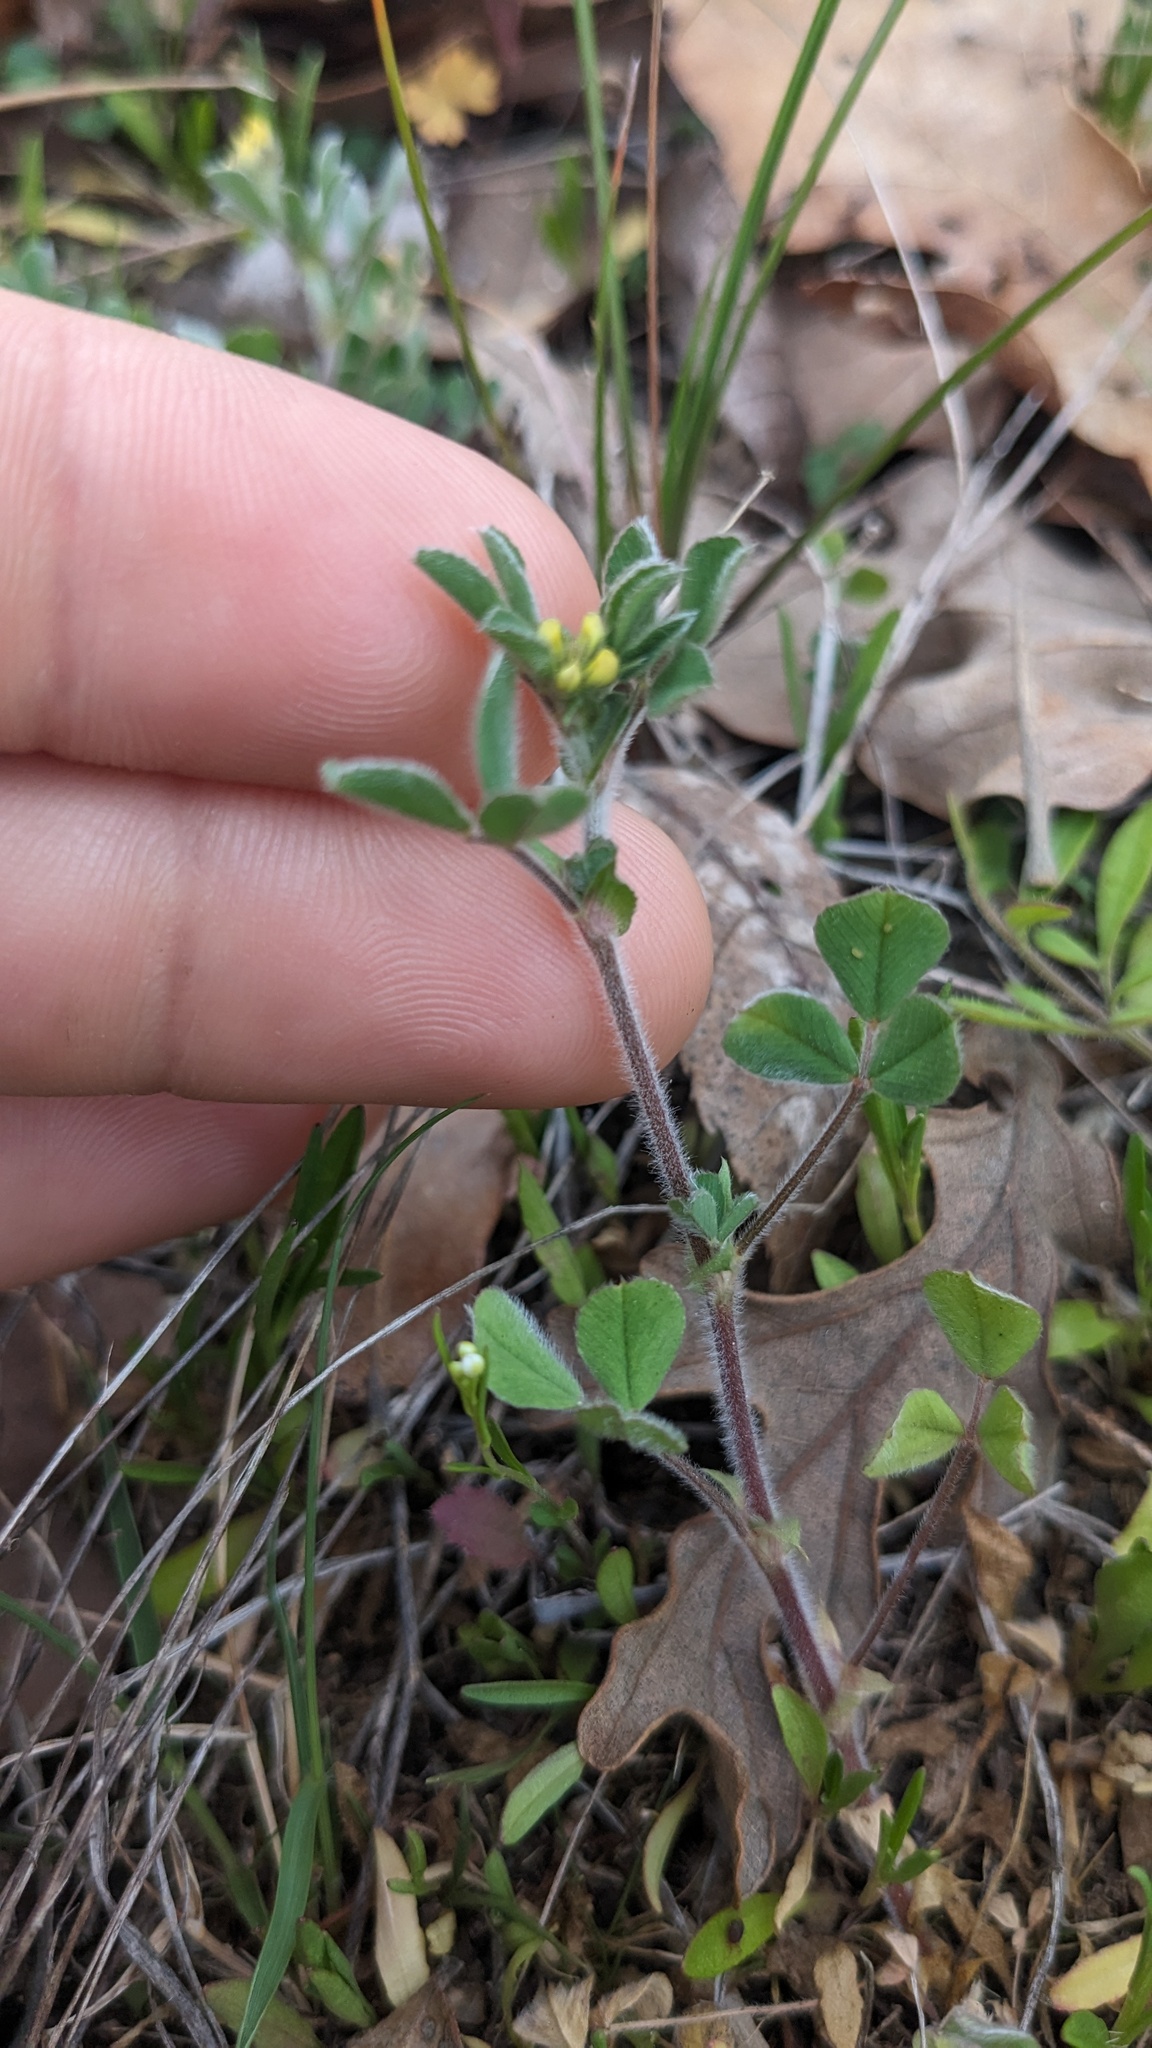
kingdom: Plantae
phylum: Tracheophyta
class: Magnoliopsida
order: Fabales
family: Fabaceae
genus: Medicago
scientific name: Medicago minima
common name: Little bur-clover
